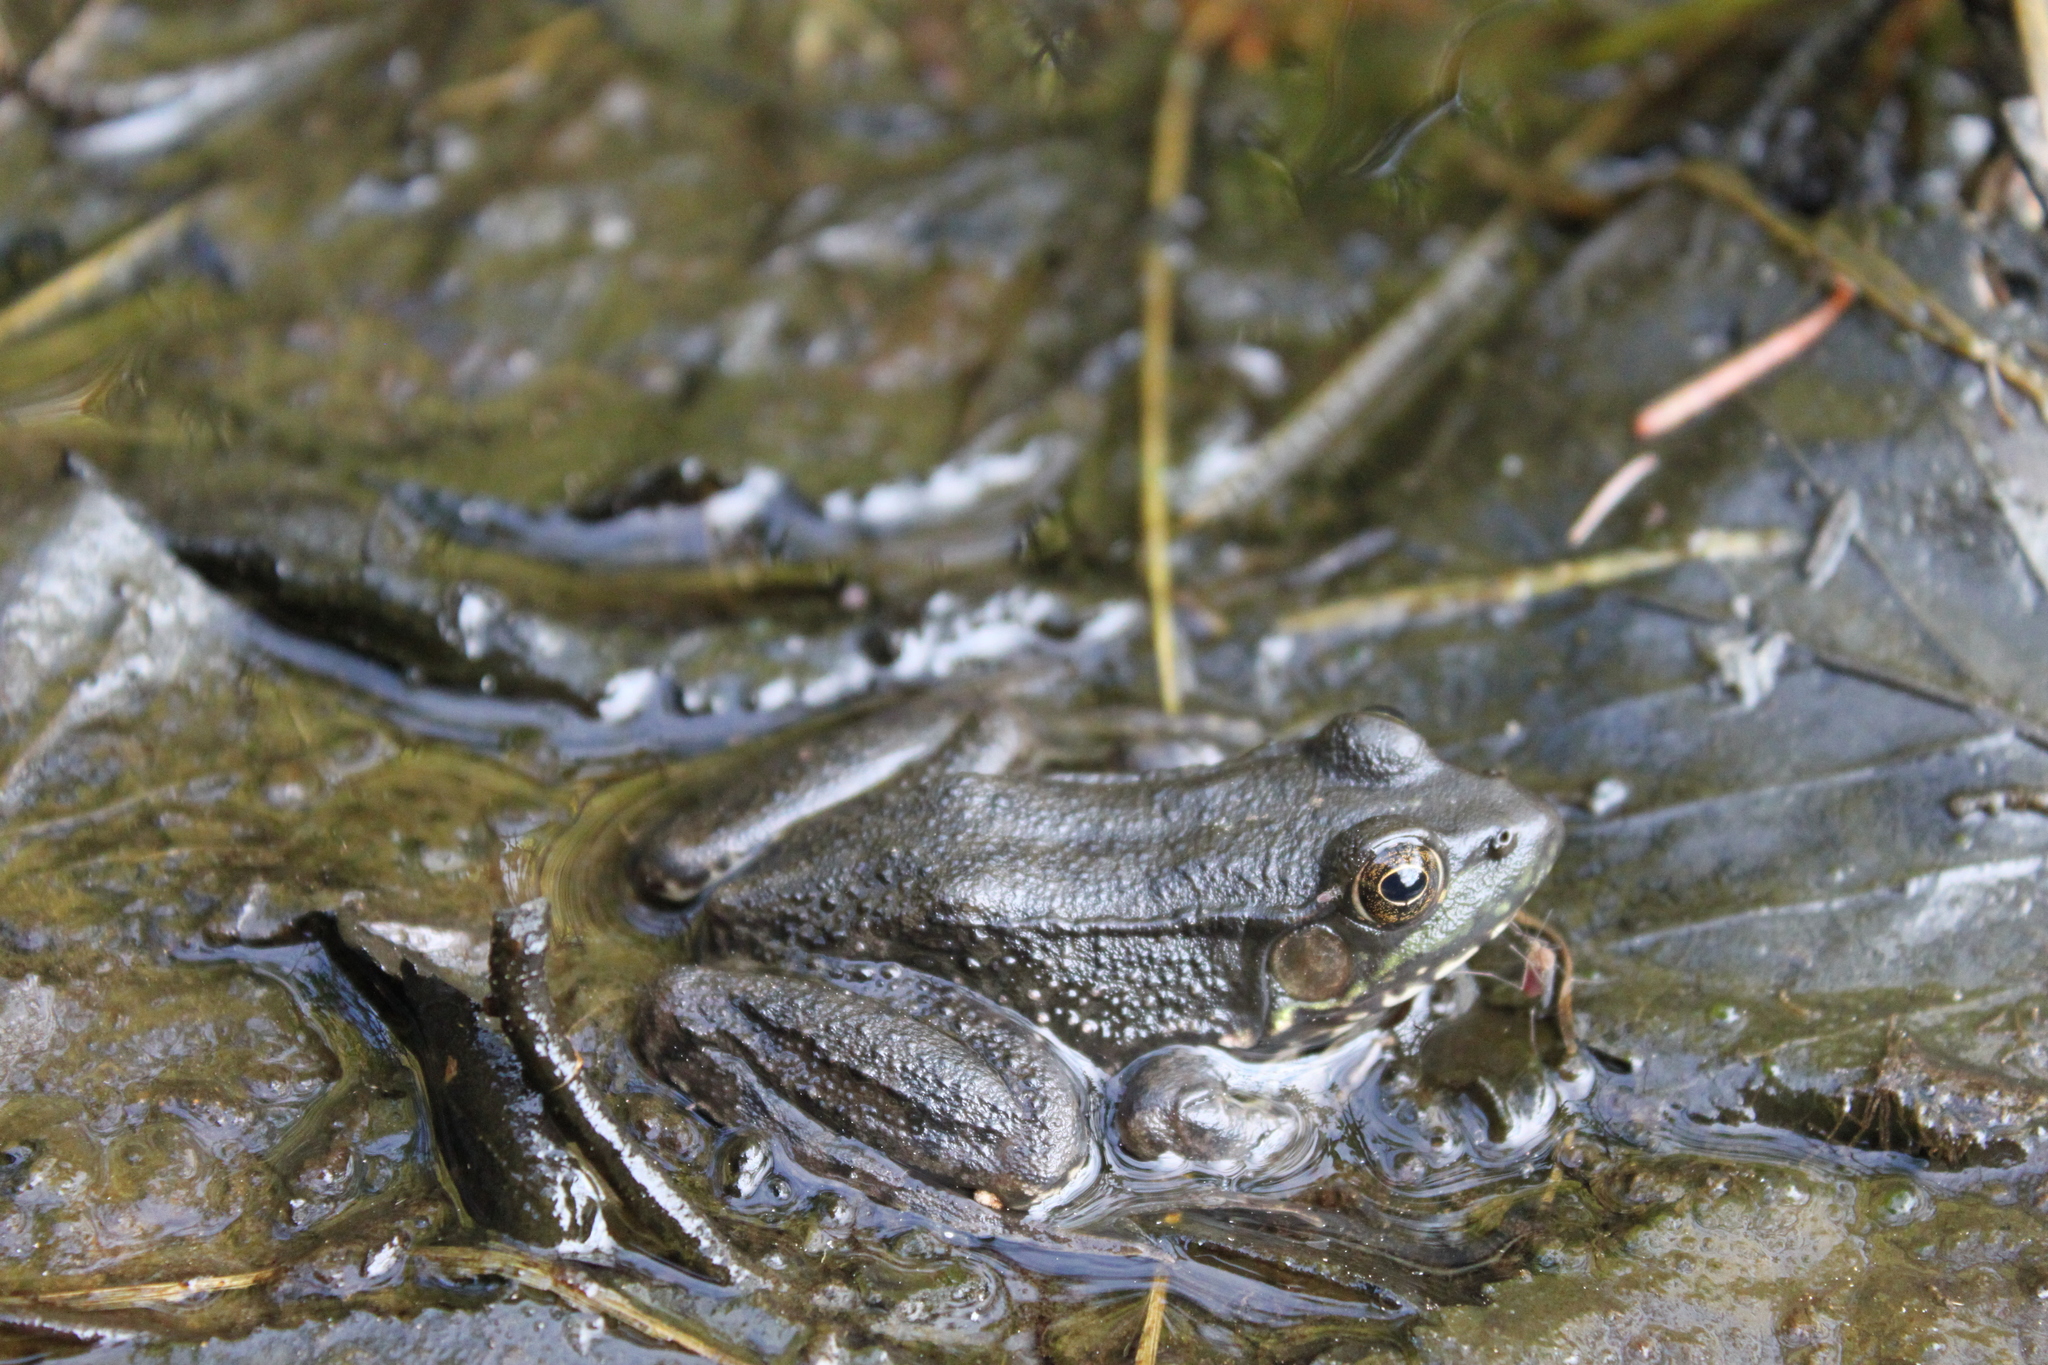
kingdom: Animalia
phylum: Chordata
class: Amphibia
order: Anura
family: Ranidae
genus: Lithobates
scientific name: Lithobates clamitans
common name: Green frog
